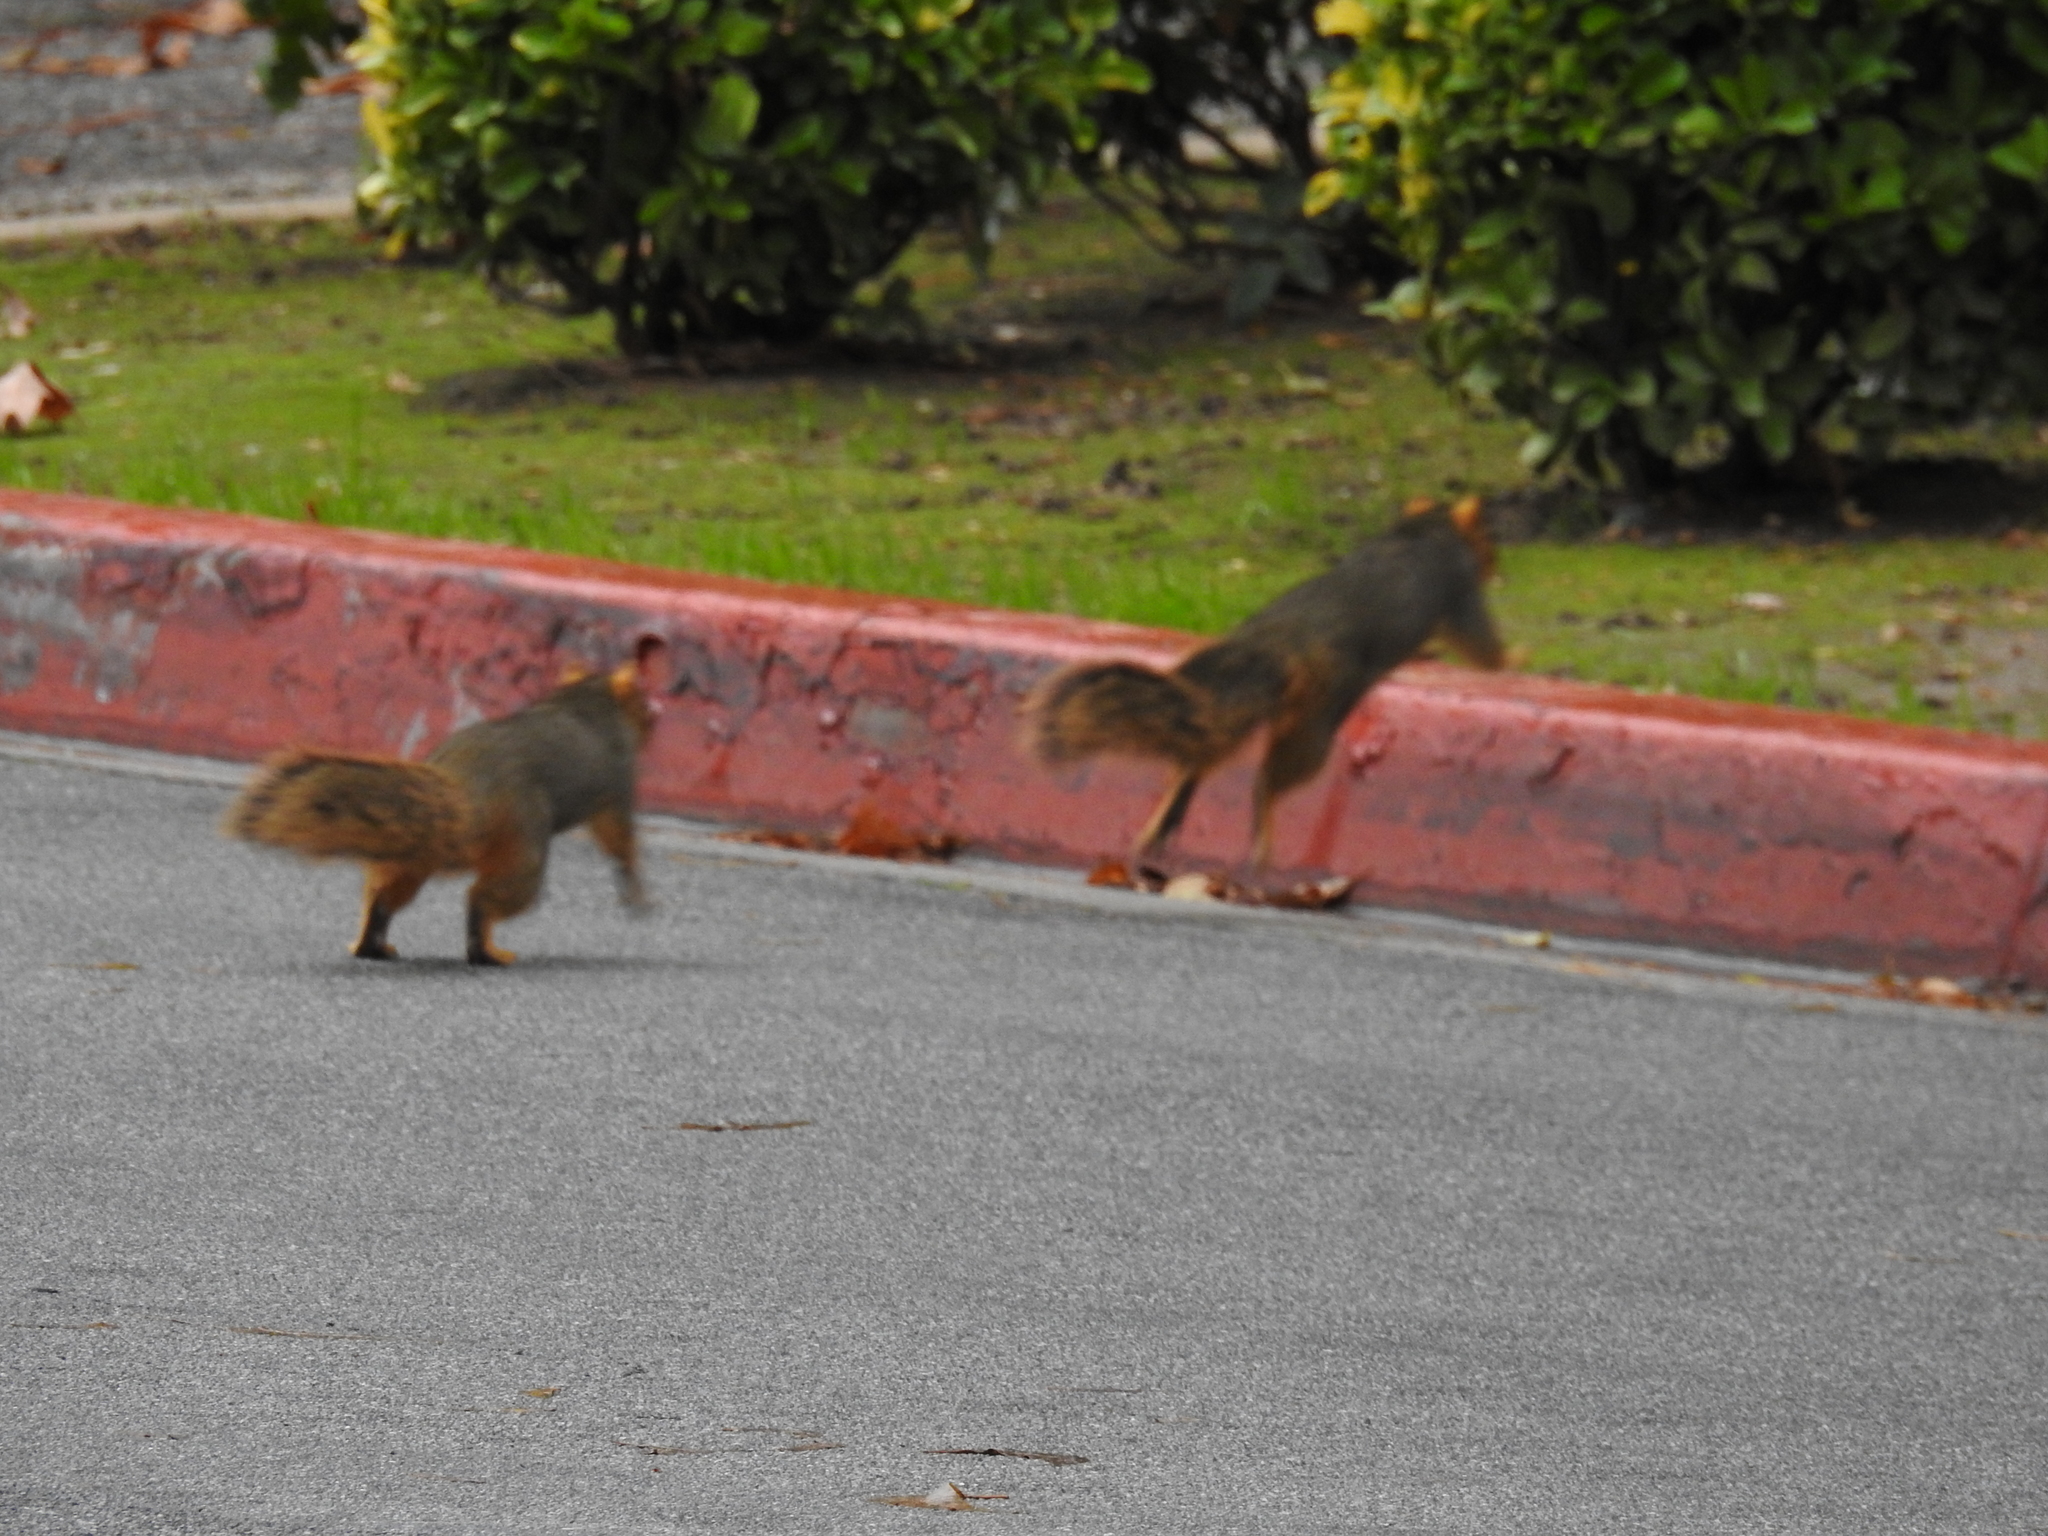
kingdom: Animalia
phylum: Chordata
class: Mammalia
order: Rodentia
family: Sciuridae
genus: Sciurus
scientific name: Sciurus niger
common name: Fox squirrel
